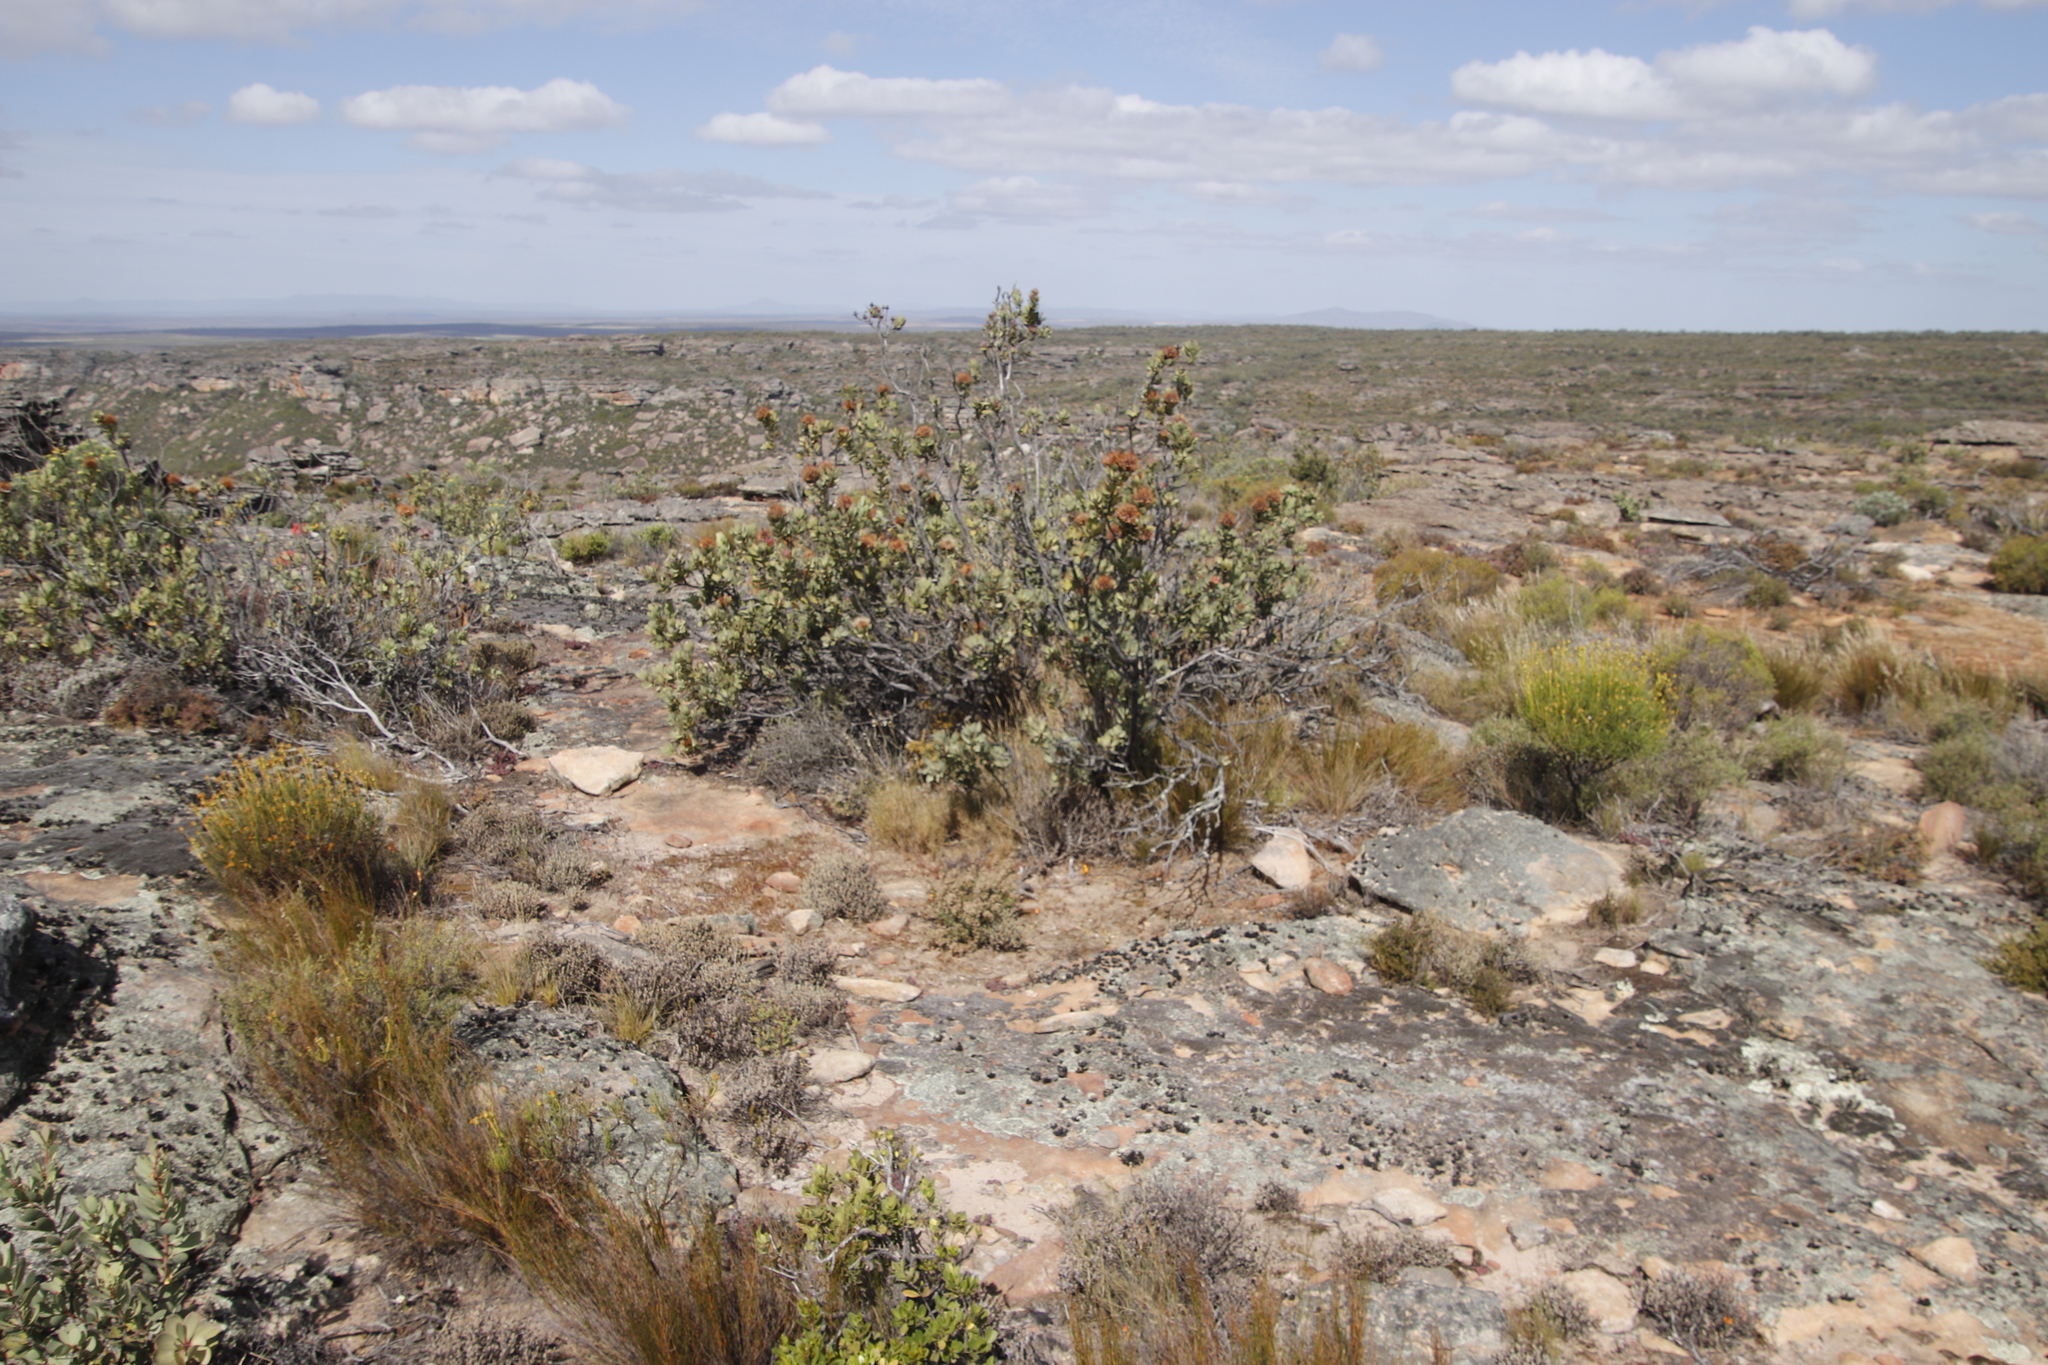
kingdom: Plantae
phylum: Tracheophyta
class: Magnoliopsida
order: Proteales
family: Proteaceae
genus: Protea
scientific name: Protea glabra
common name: Chestnut sugarbush
